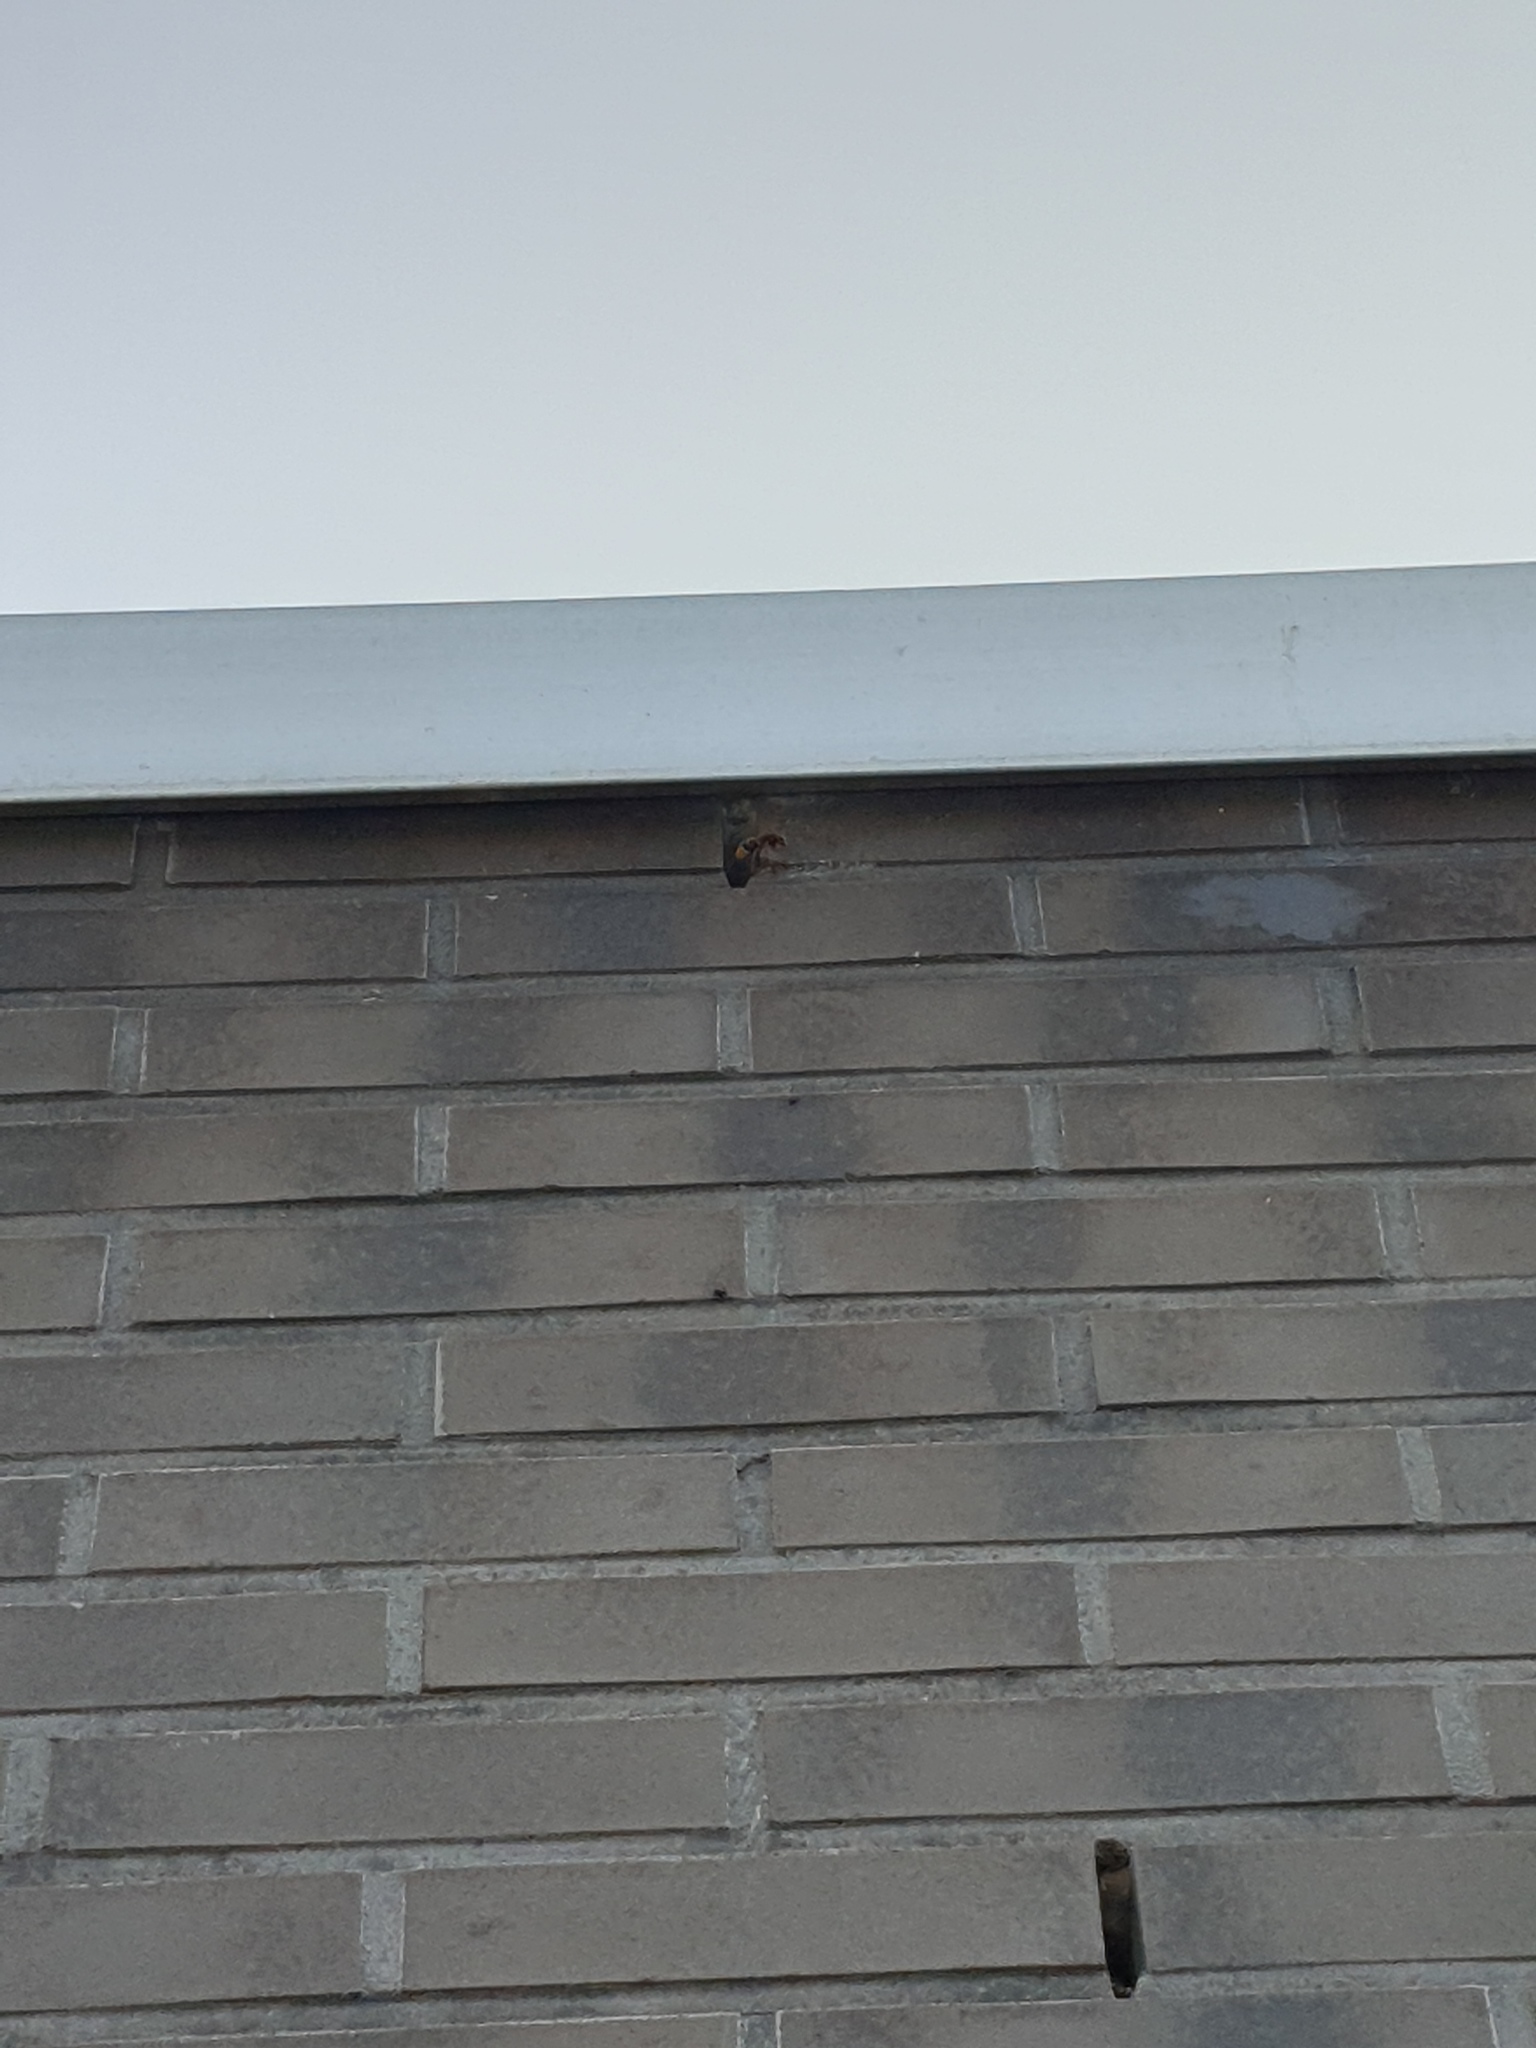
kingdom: Animalia
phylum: Arthropoda
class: Insecta
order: Hymenoptera
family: Vespidae
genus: Vespa
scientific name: Vespa crabro
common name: Hornet
